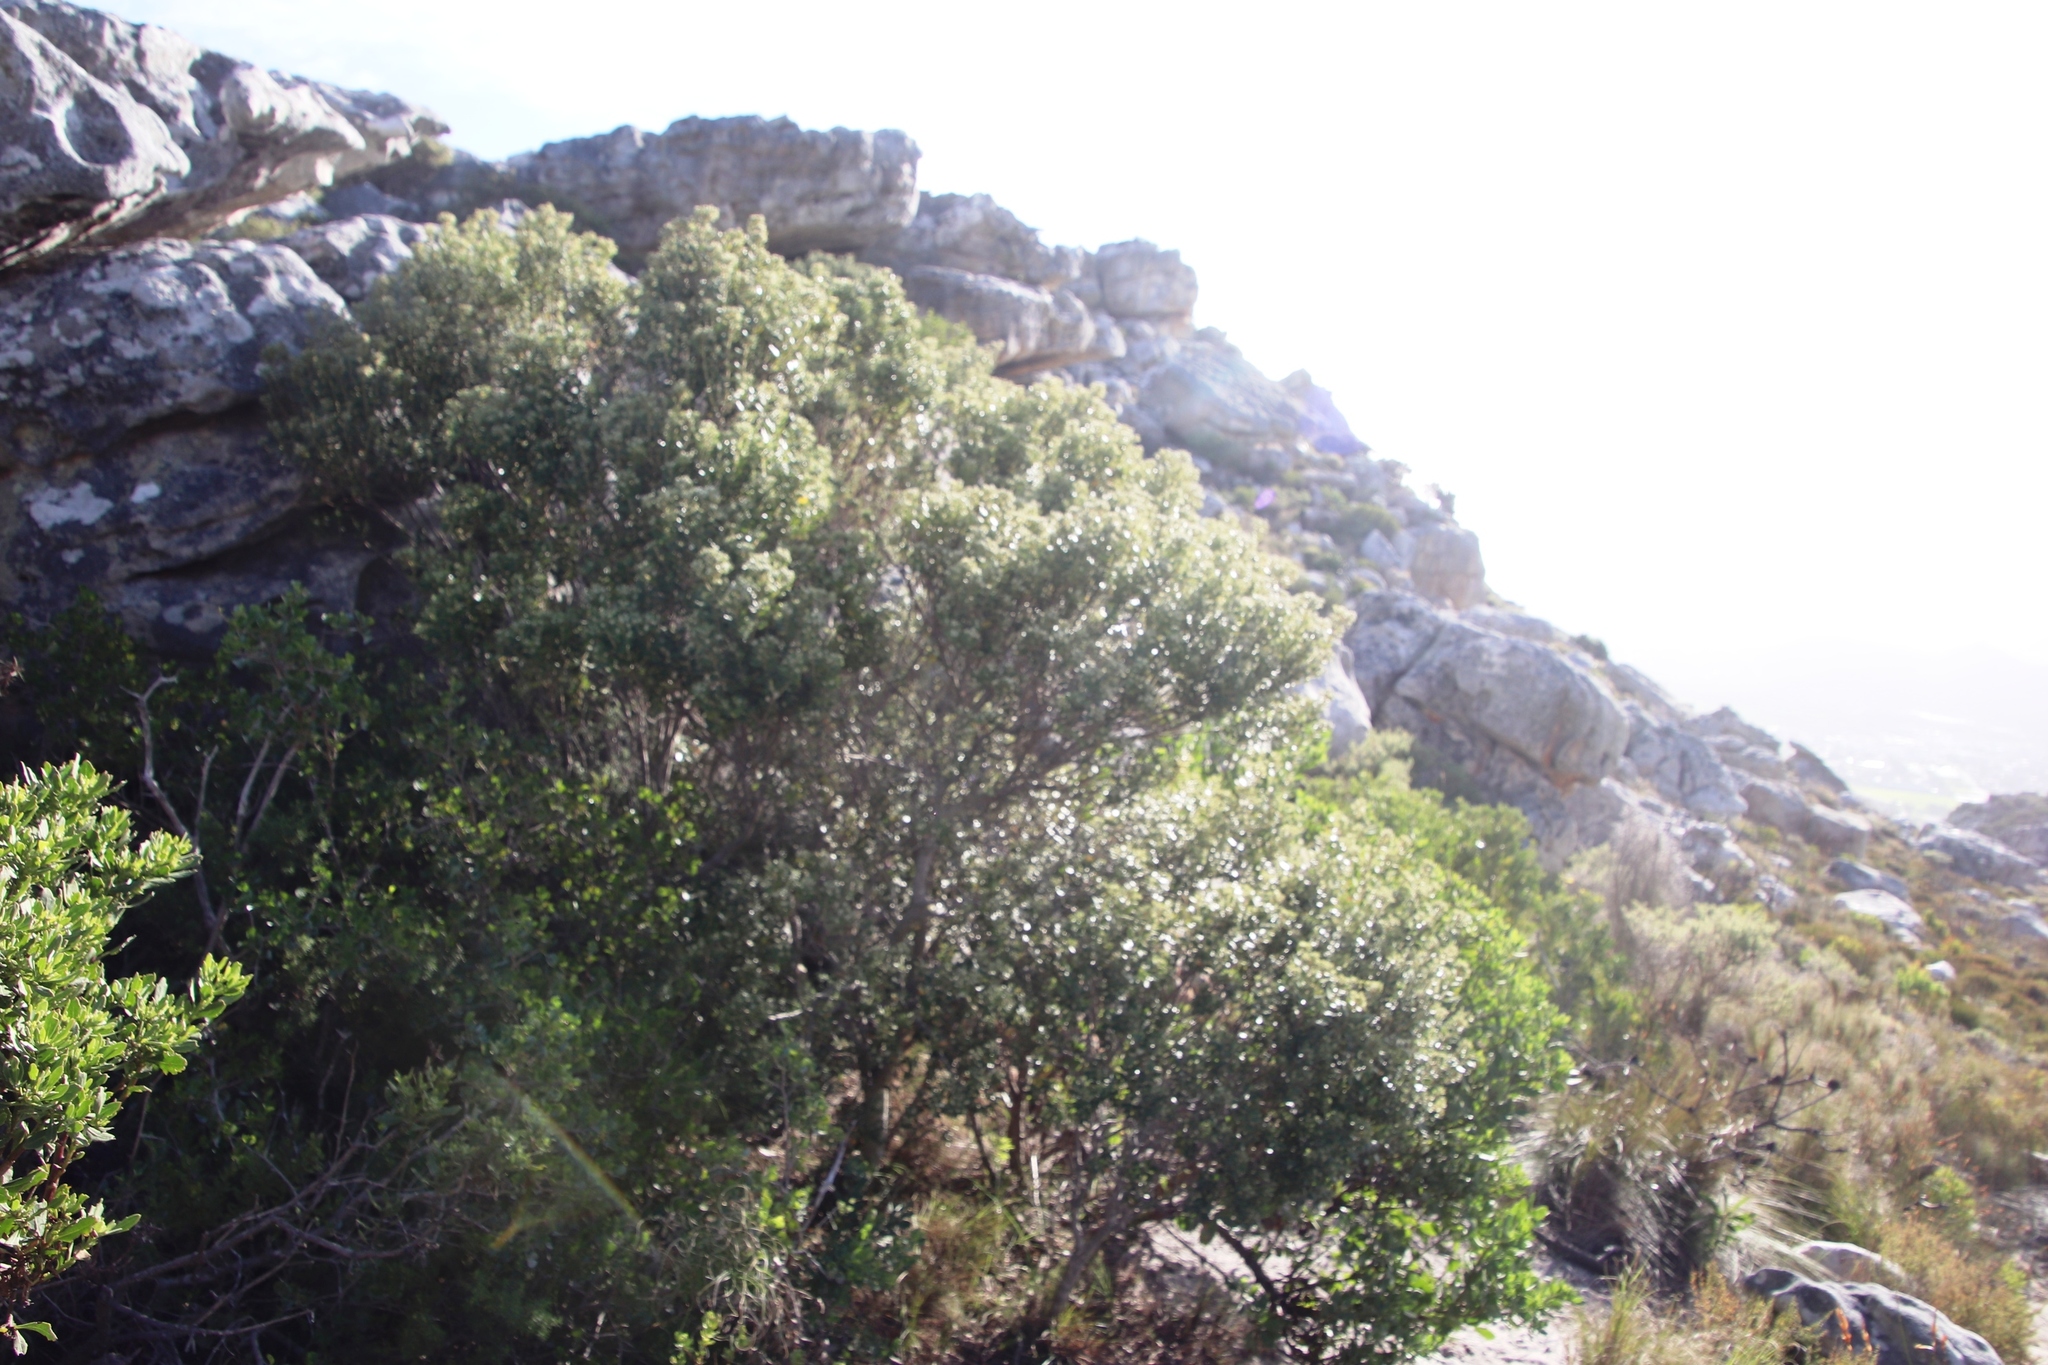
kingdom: Plantae
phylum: Tracheophyta
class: Magnoliopsida
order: Rosales
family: Rhamnaceae
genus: Phylica
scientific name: Phylica buxifolia
